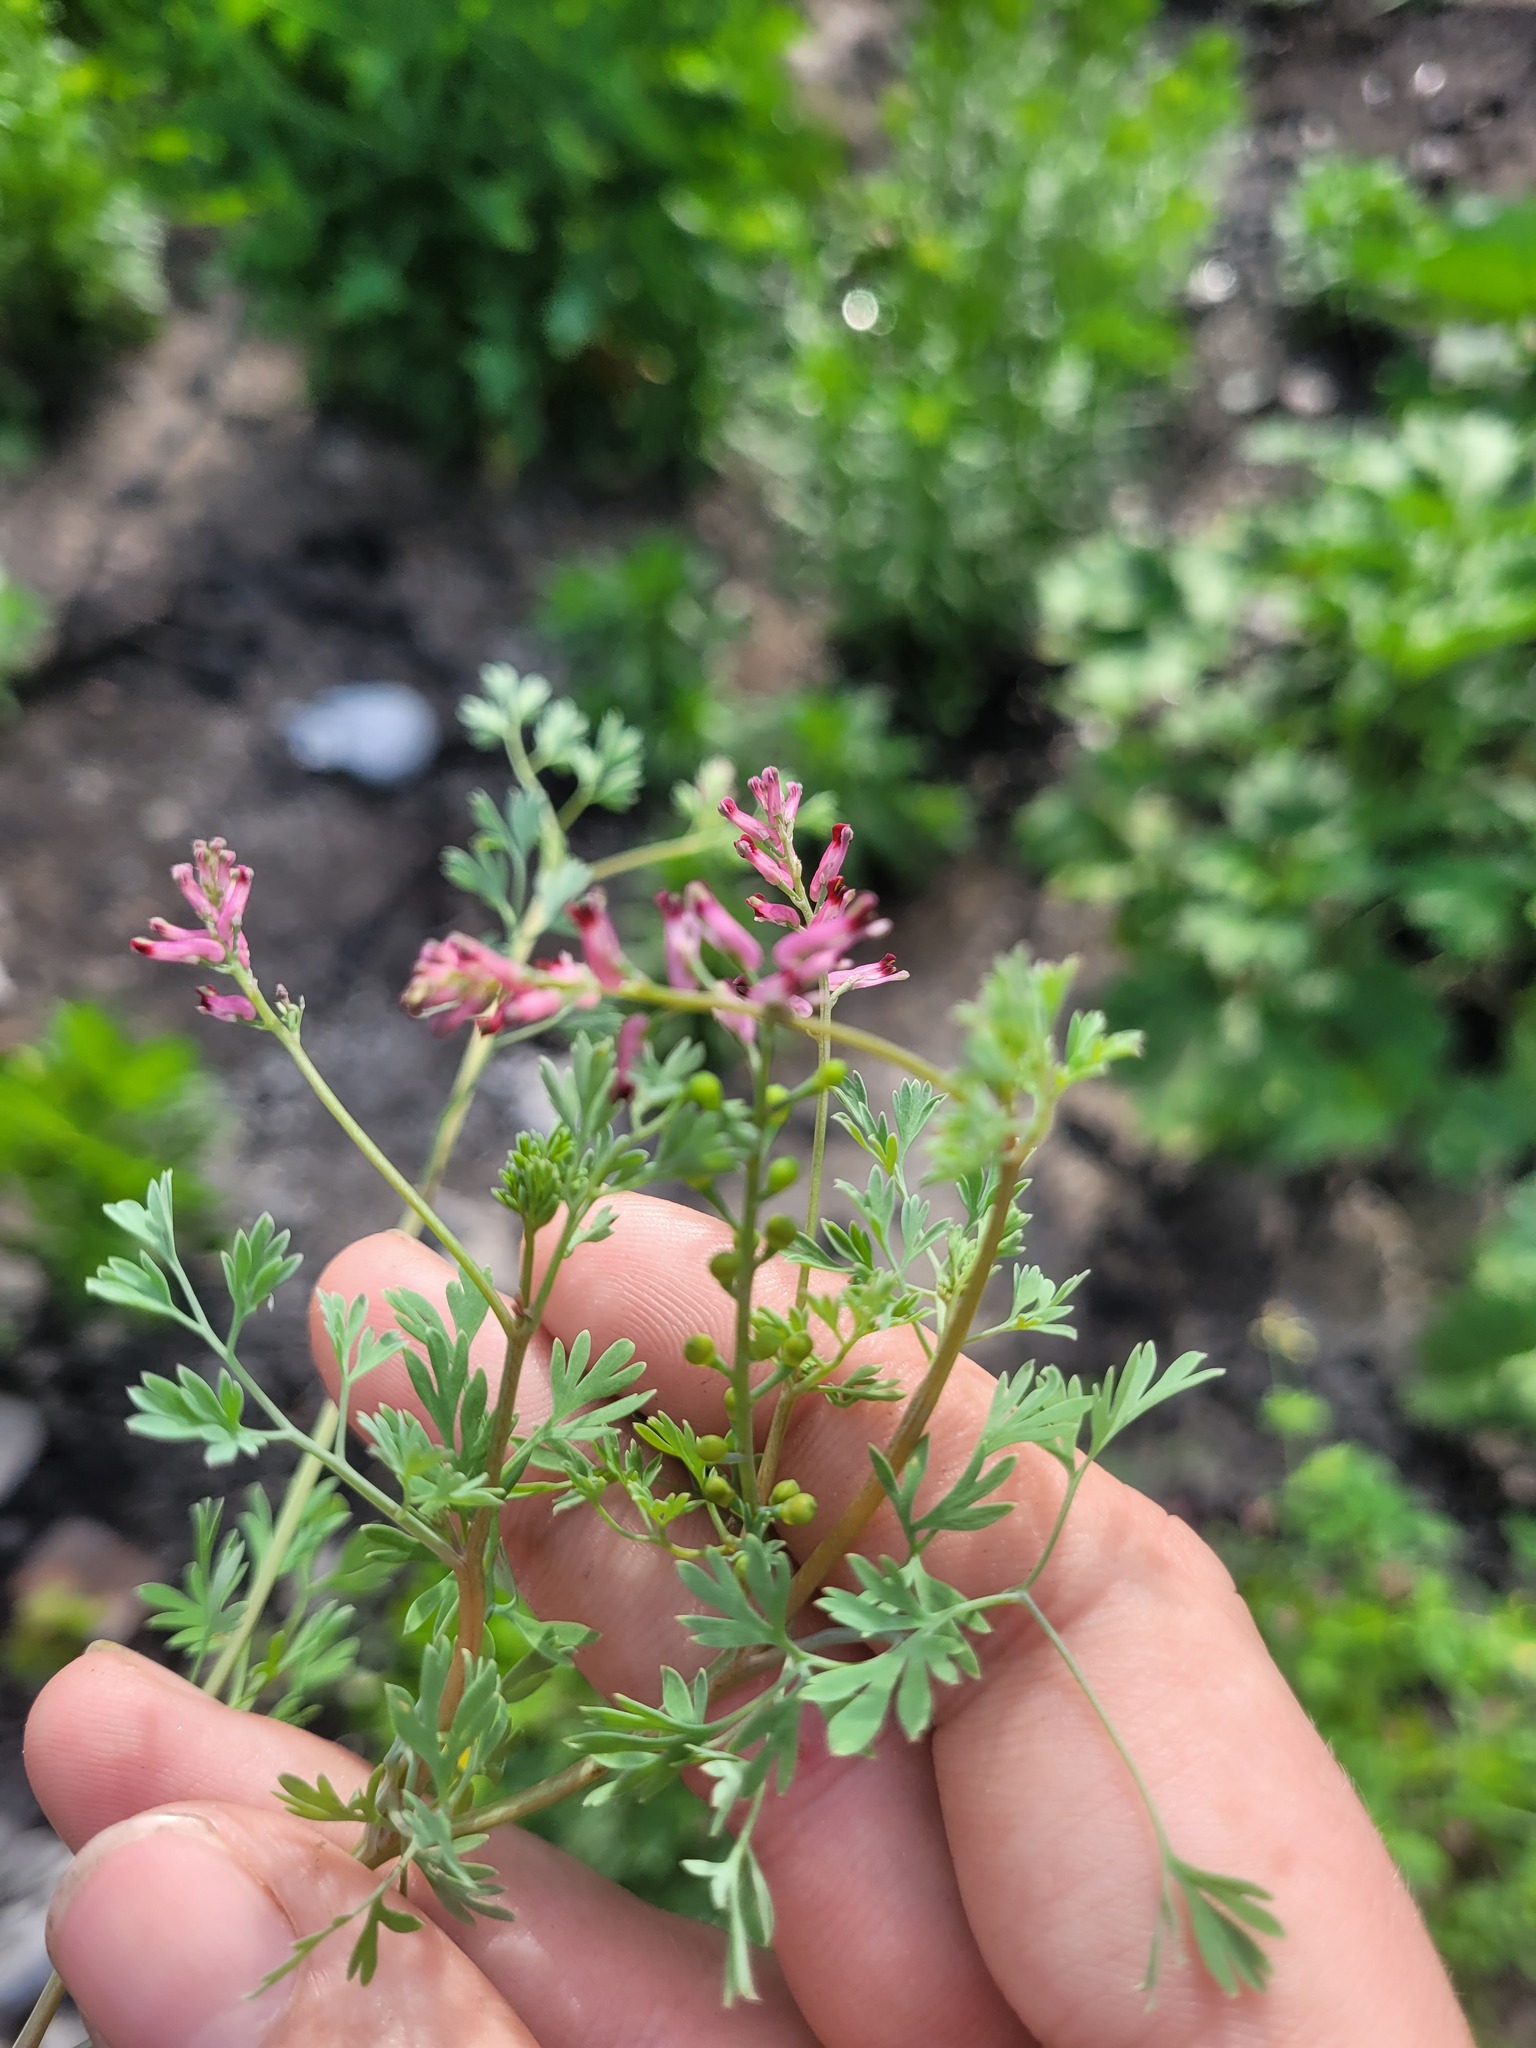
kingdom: Plantae
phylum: Tracheophyta
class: Magnoliopsida
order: Ranunculales
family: Papaveraceae
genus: Fumaria
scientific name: Fumaria schleicheri
